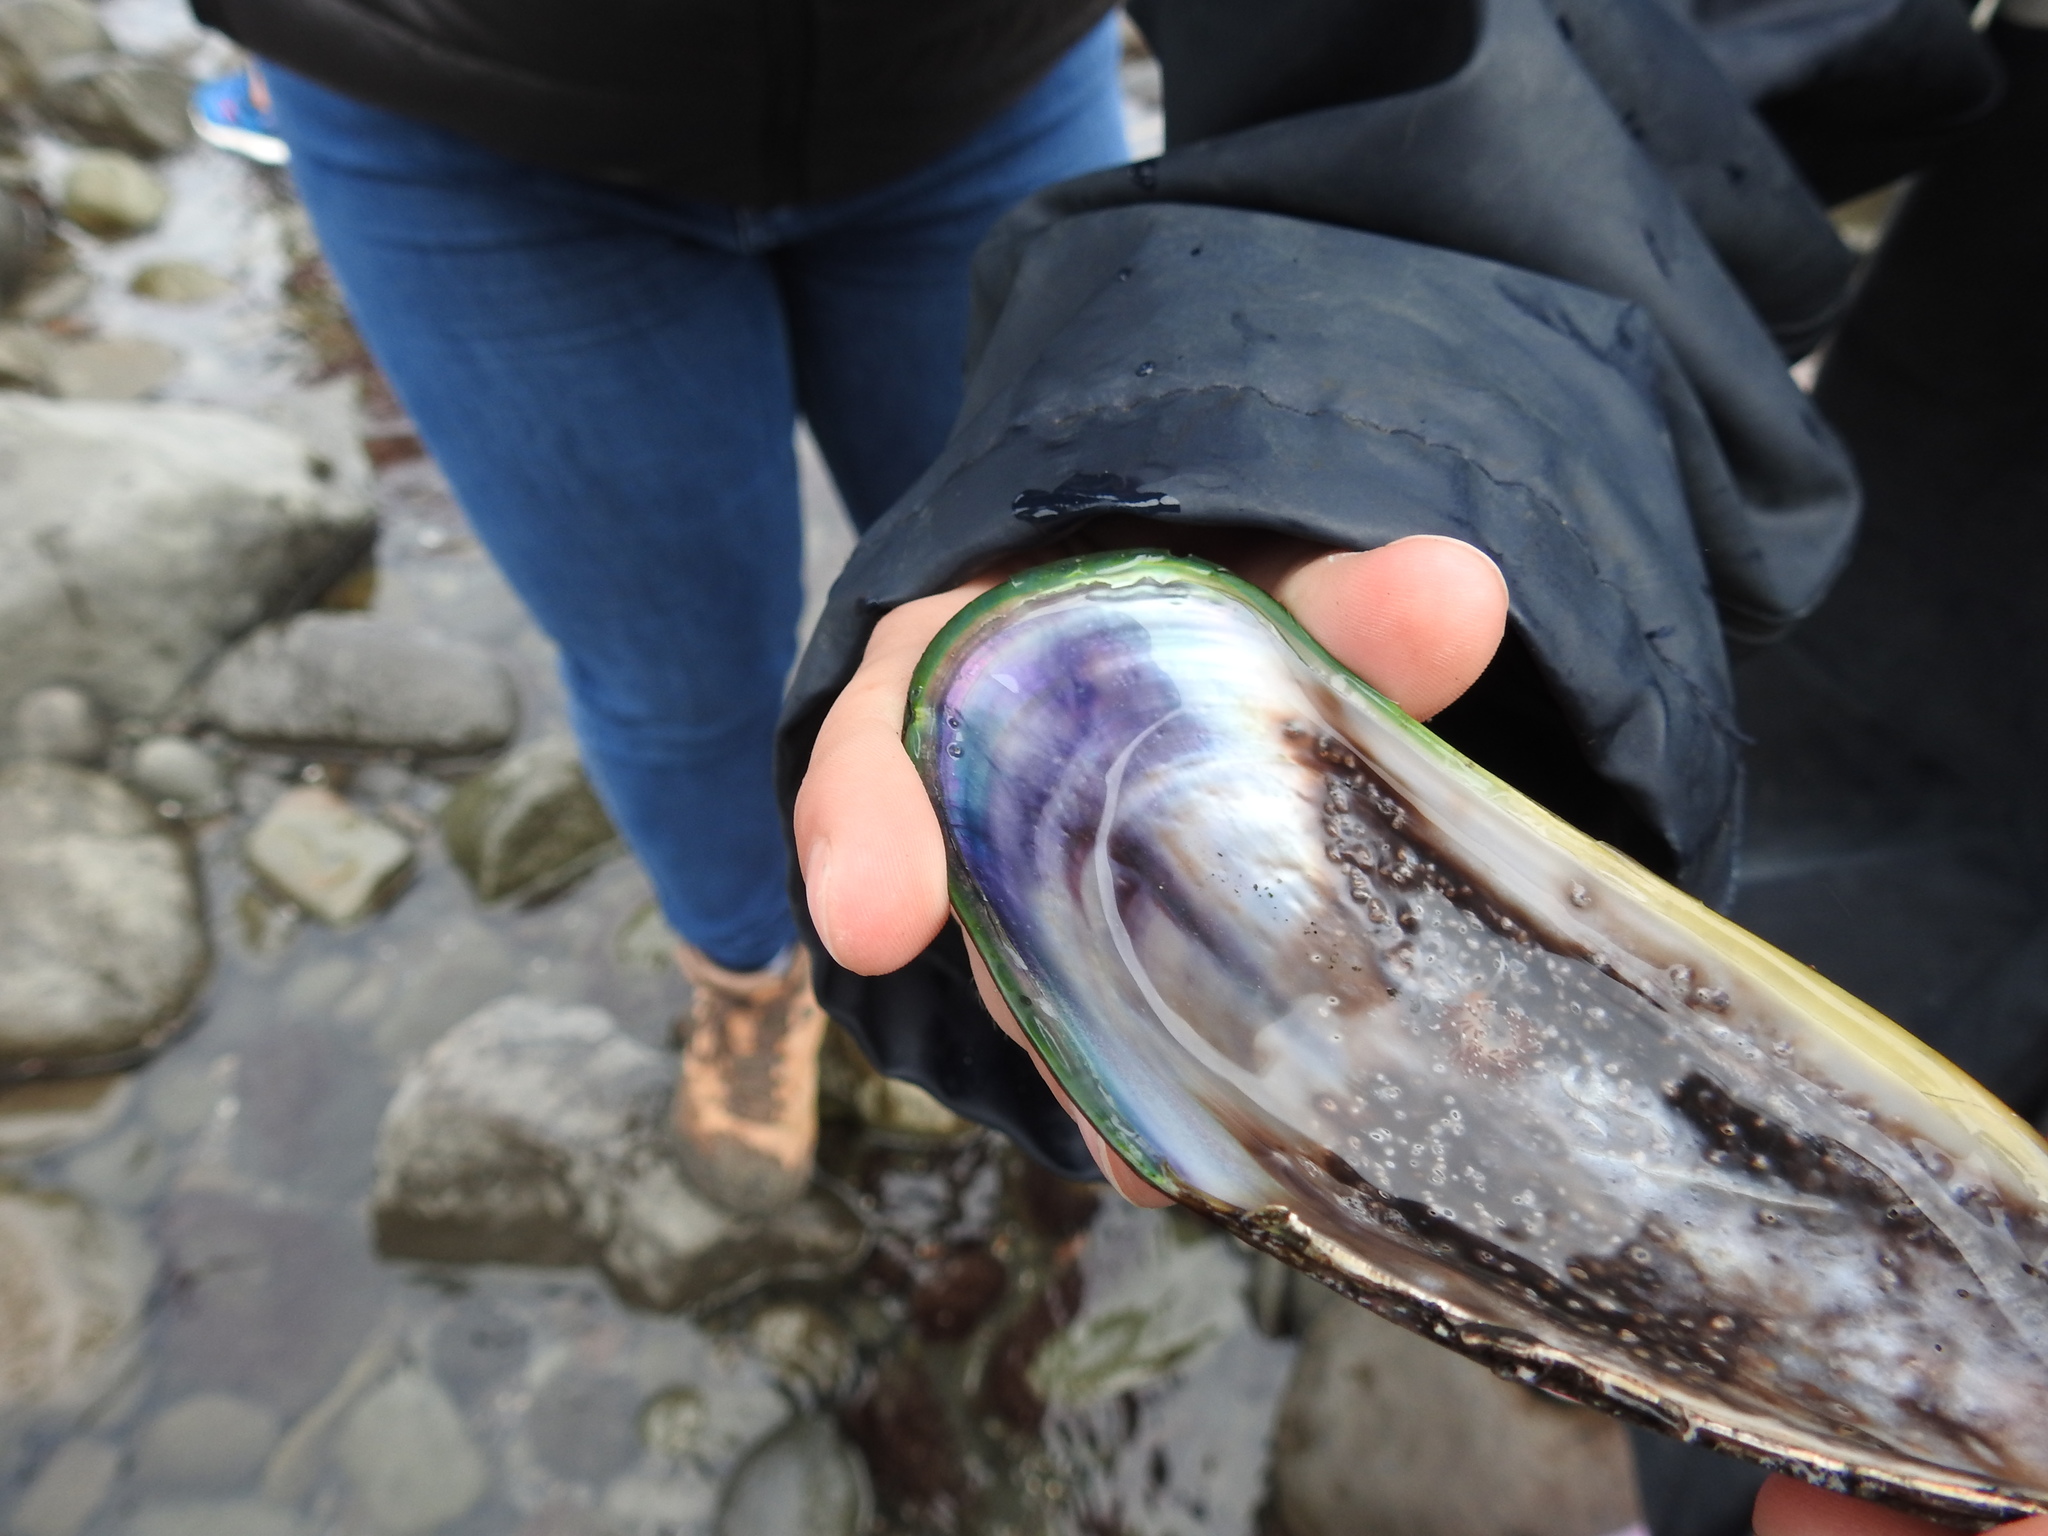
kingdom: Animalia
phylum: Mollusca
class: Gastropoda
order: Nudibranchia
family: Facelinidae
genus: Phidiana
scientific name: Phidiana milleri
